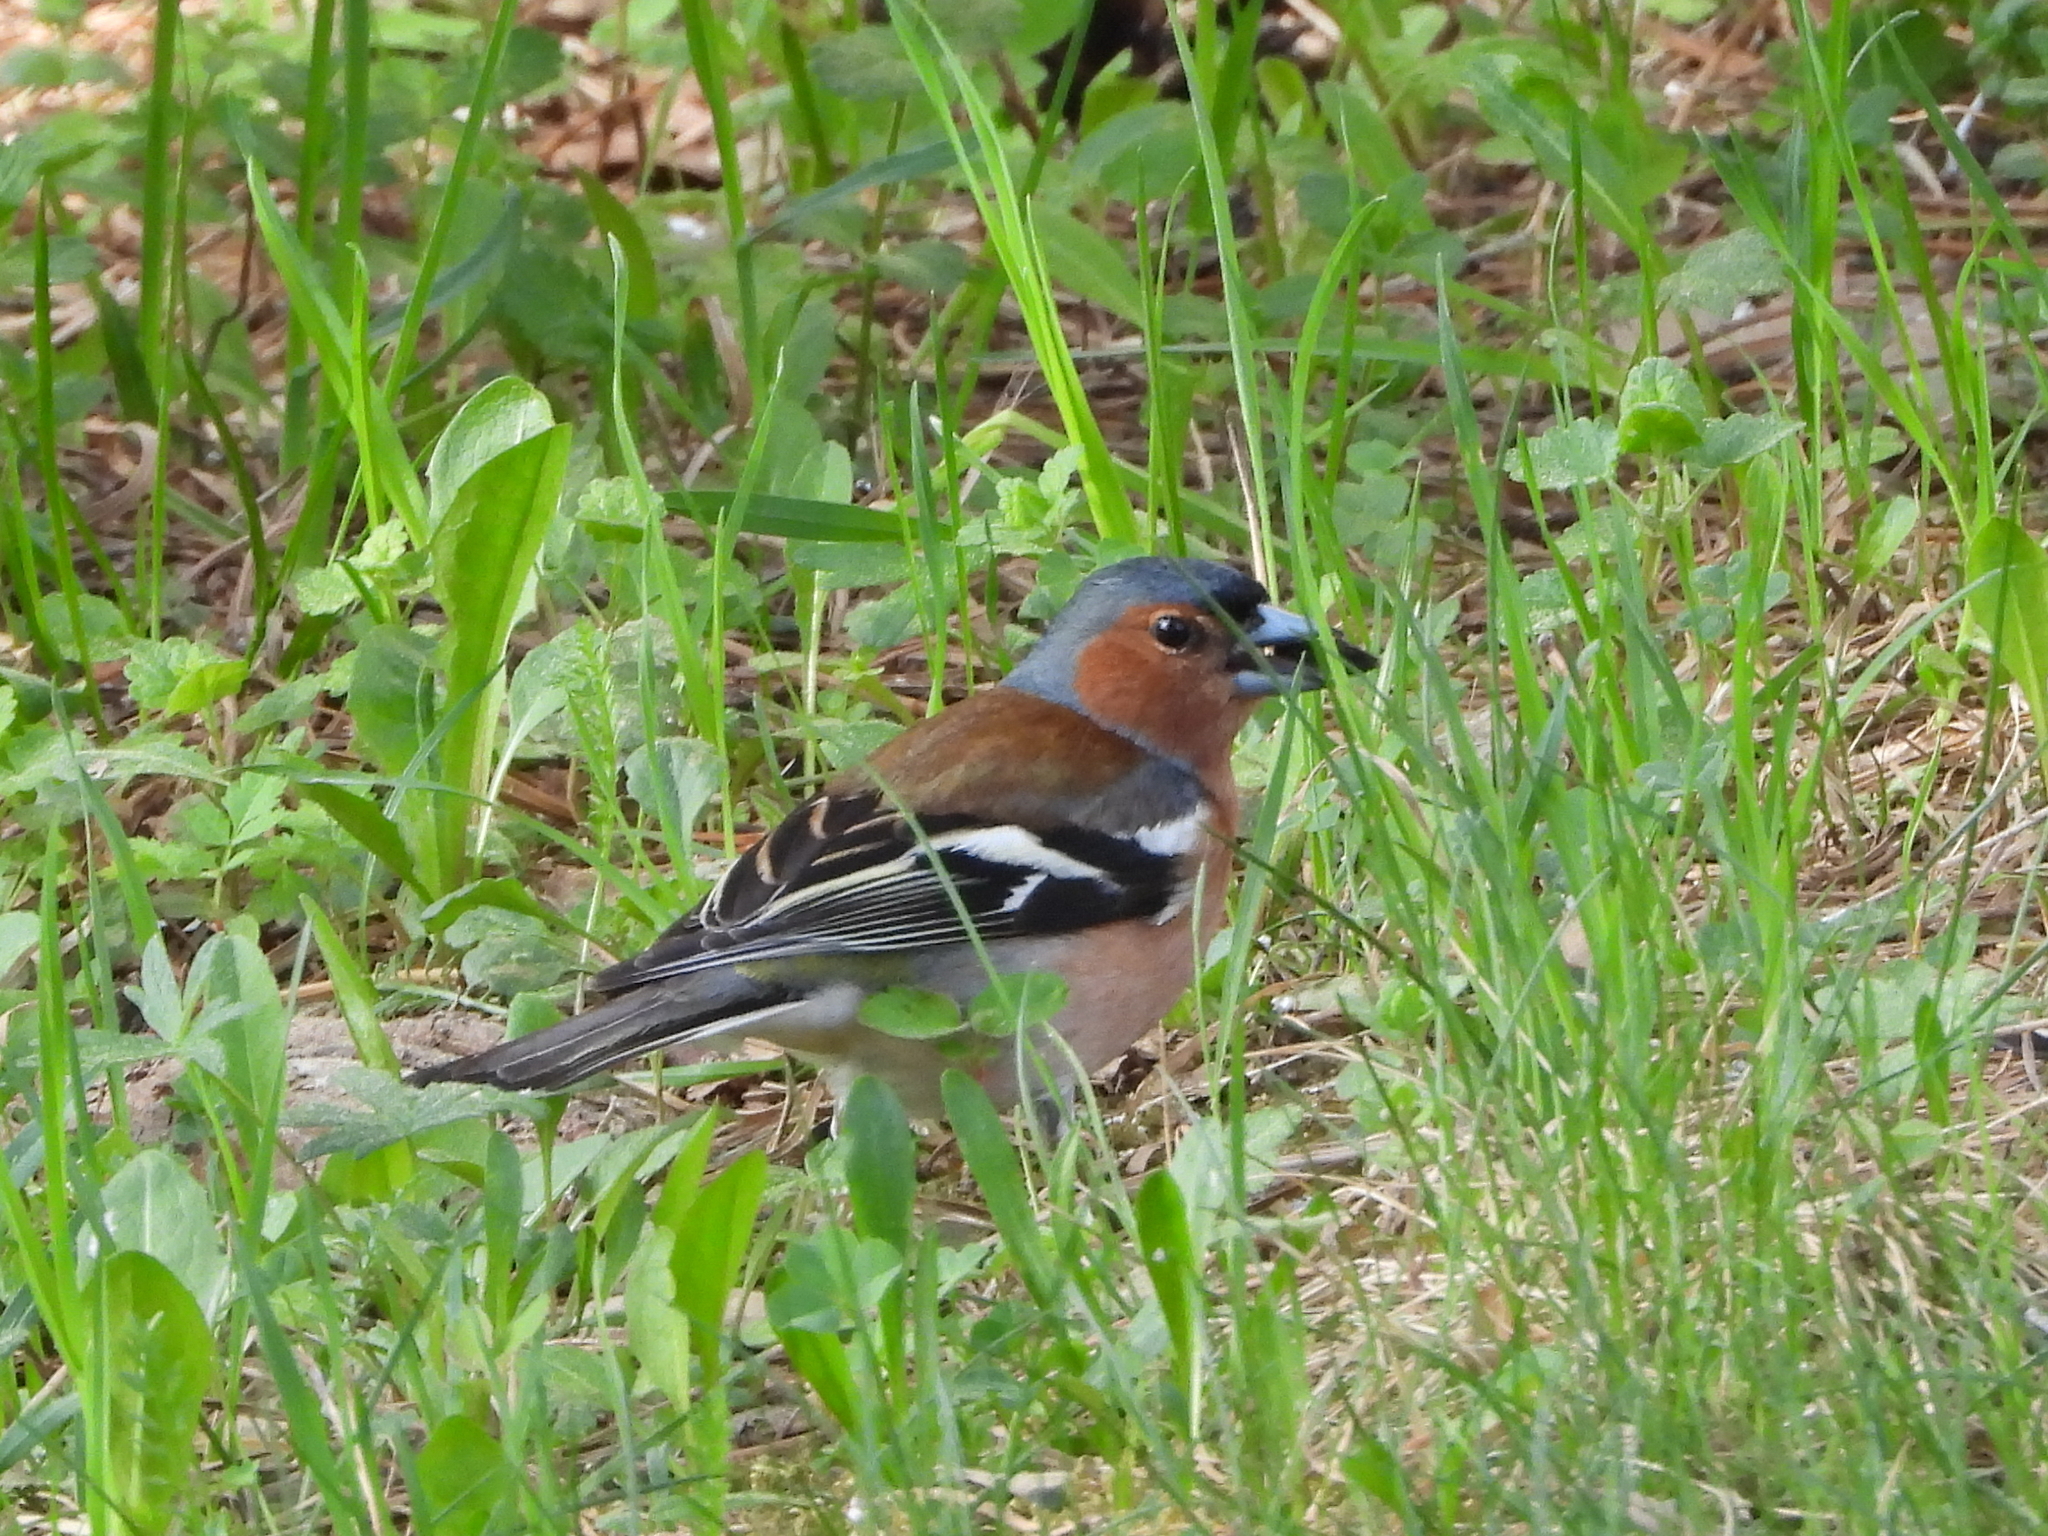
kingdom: Animalia
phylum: Chordata
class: Aves
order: Passeriformes
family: Fringillidae
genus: Fringilla
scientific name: Fringilla coelebs
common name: Common chaffinch
